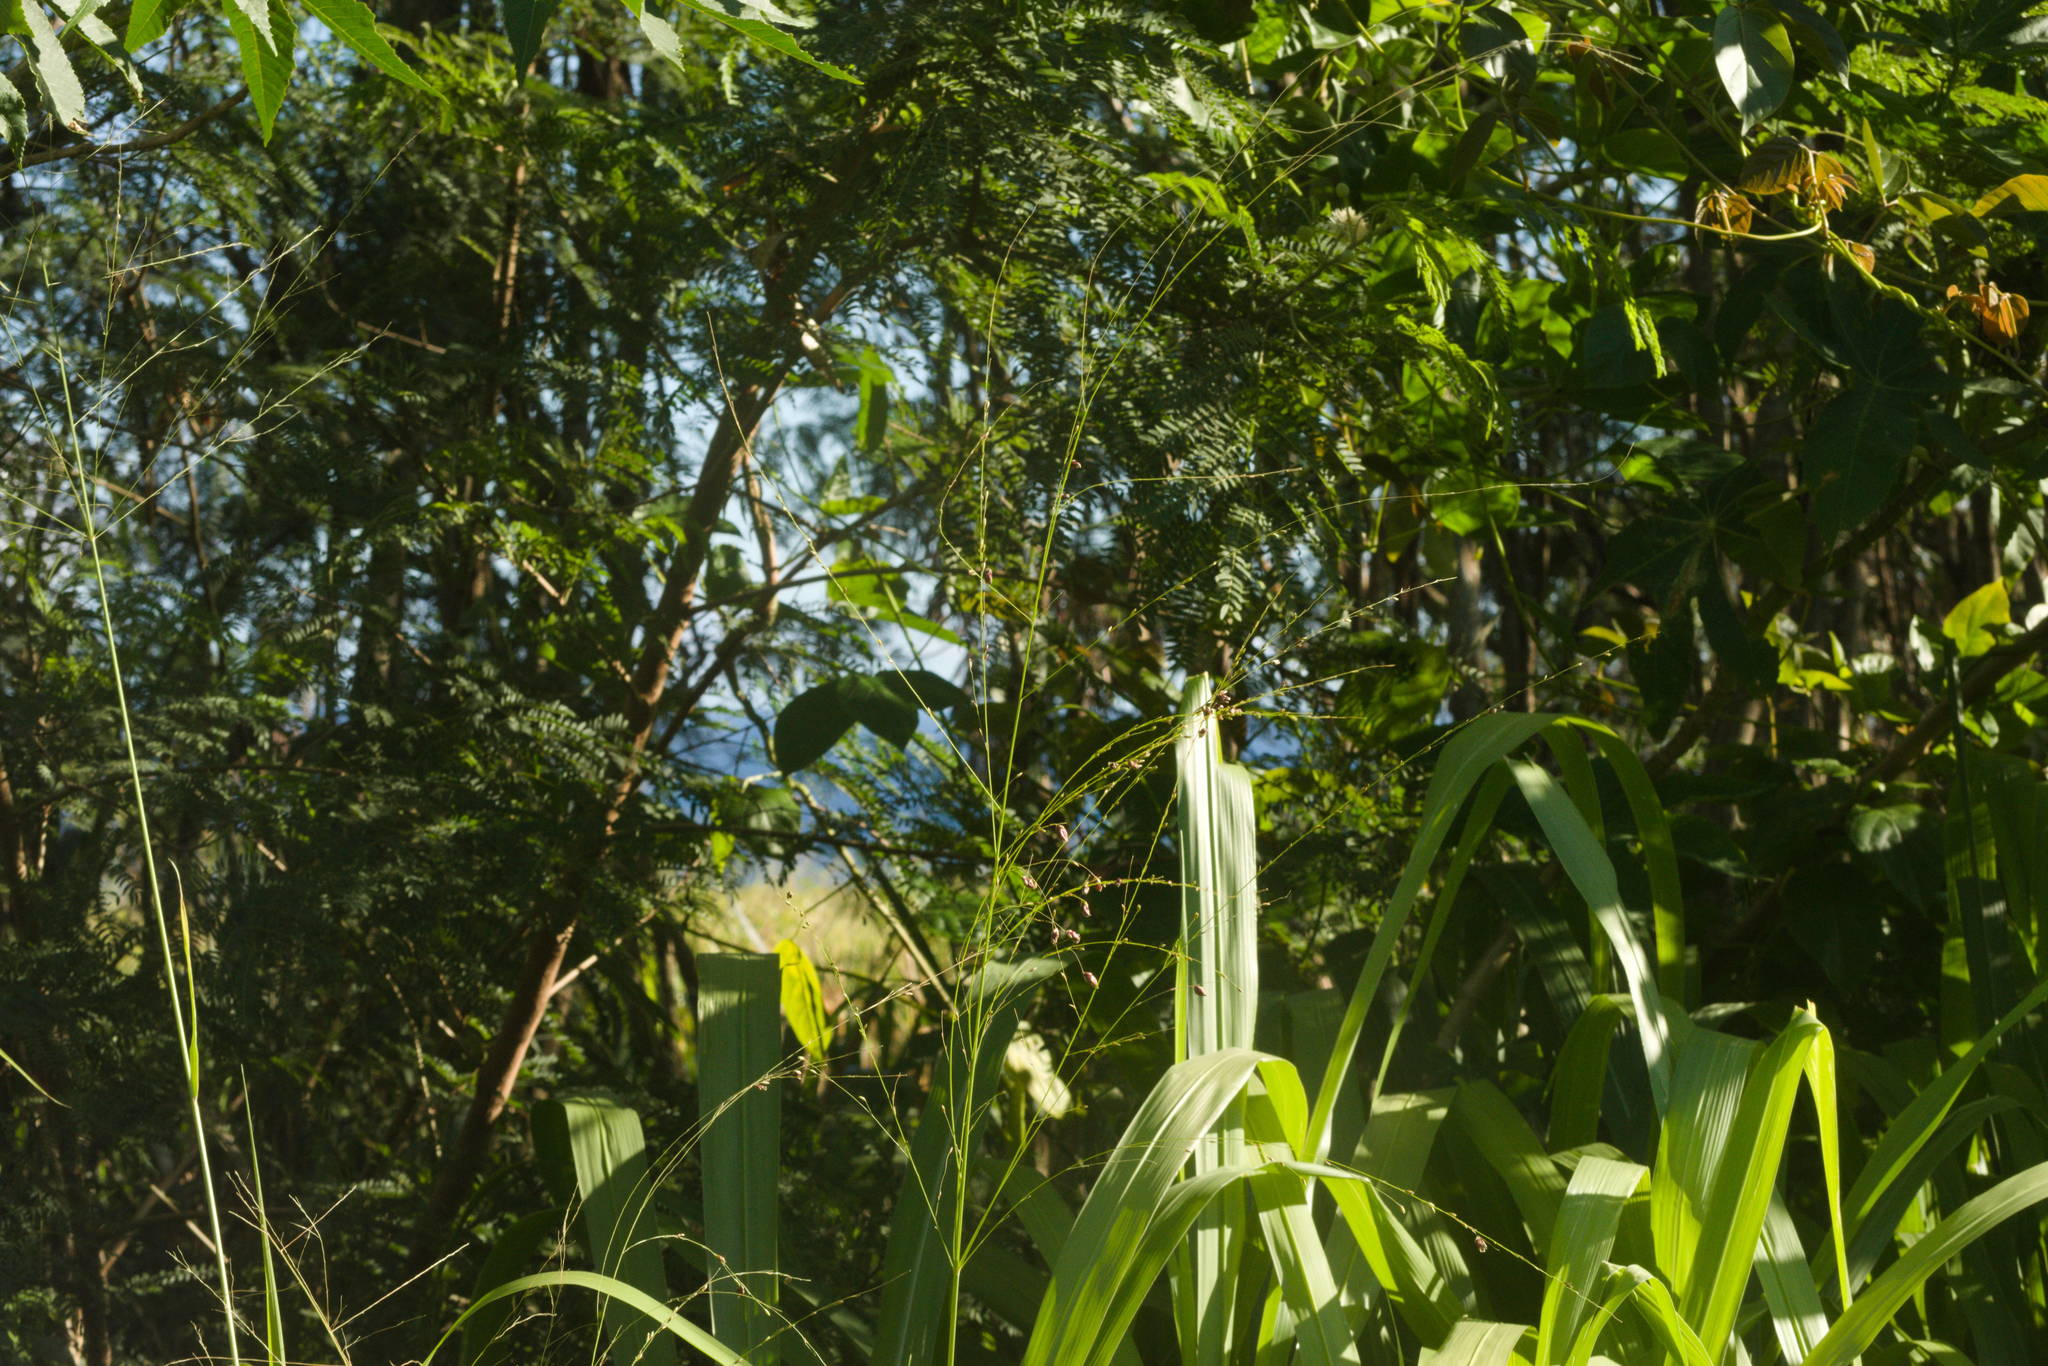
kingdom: Plantae
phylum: Tracheophyta
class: Liliopsida
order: Poales
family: Poaceae
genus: Megathyrsus
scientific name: Megathyrsus maximus
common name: Guineagrass
